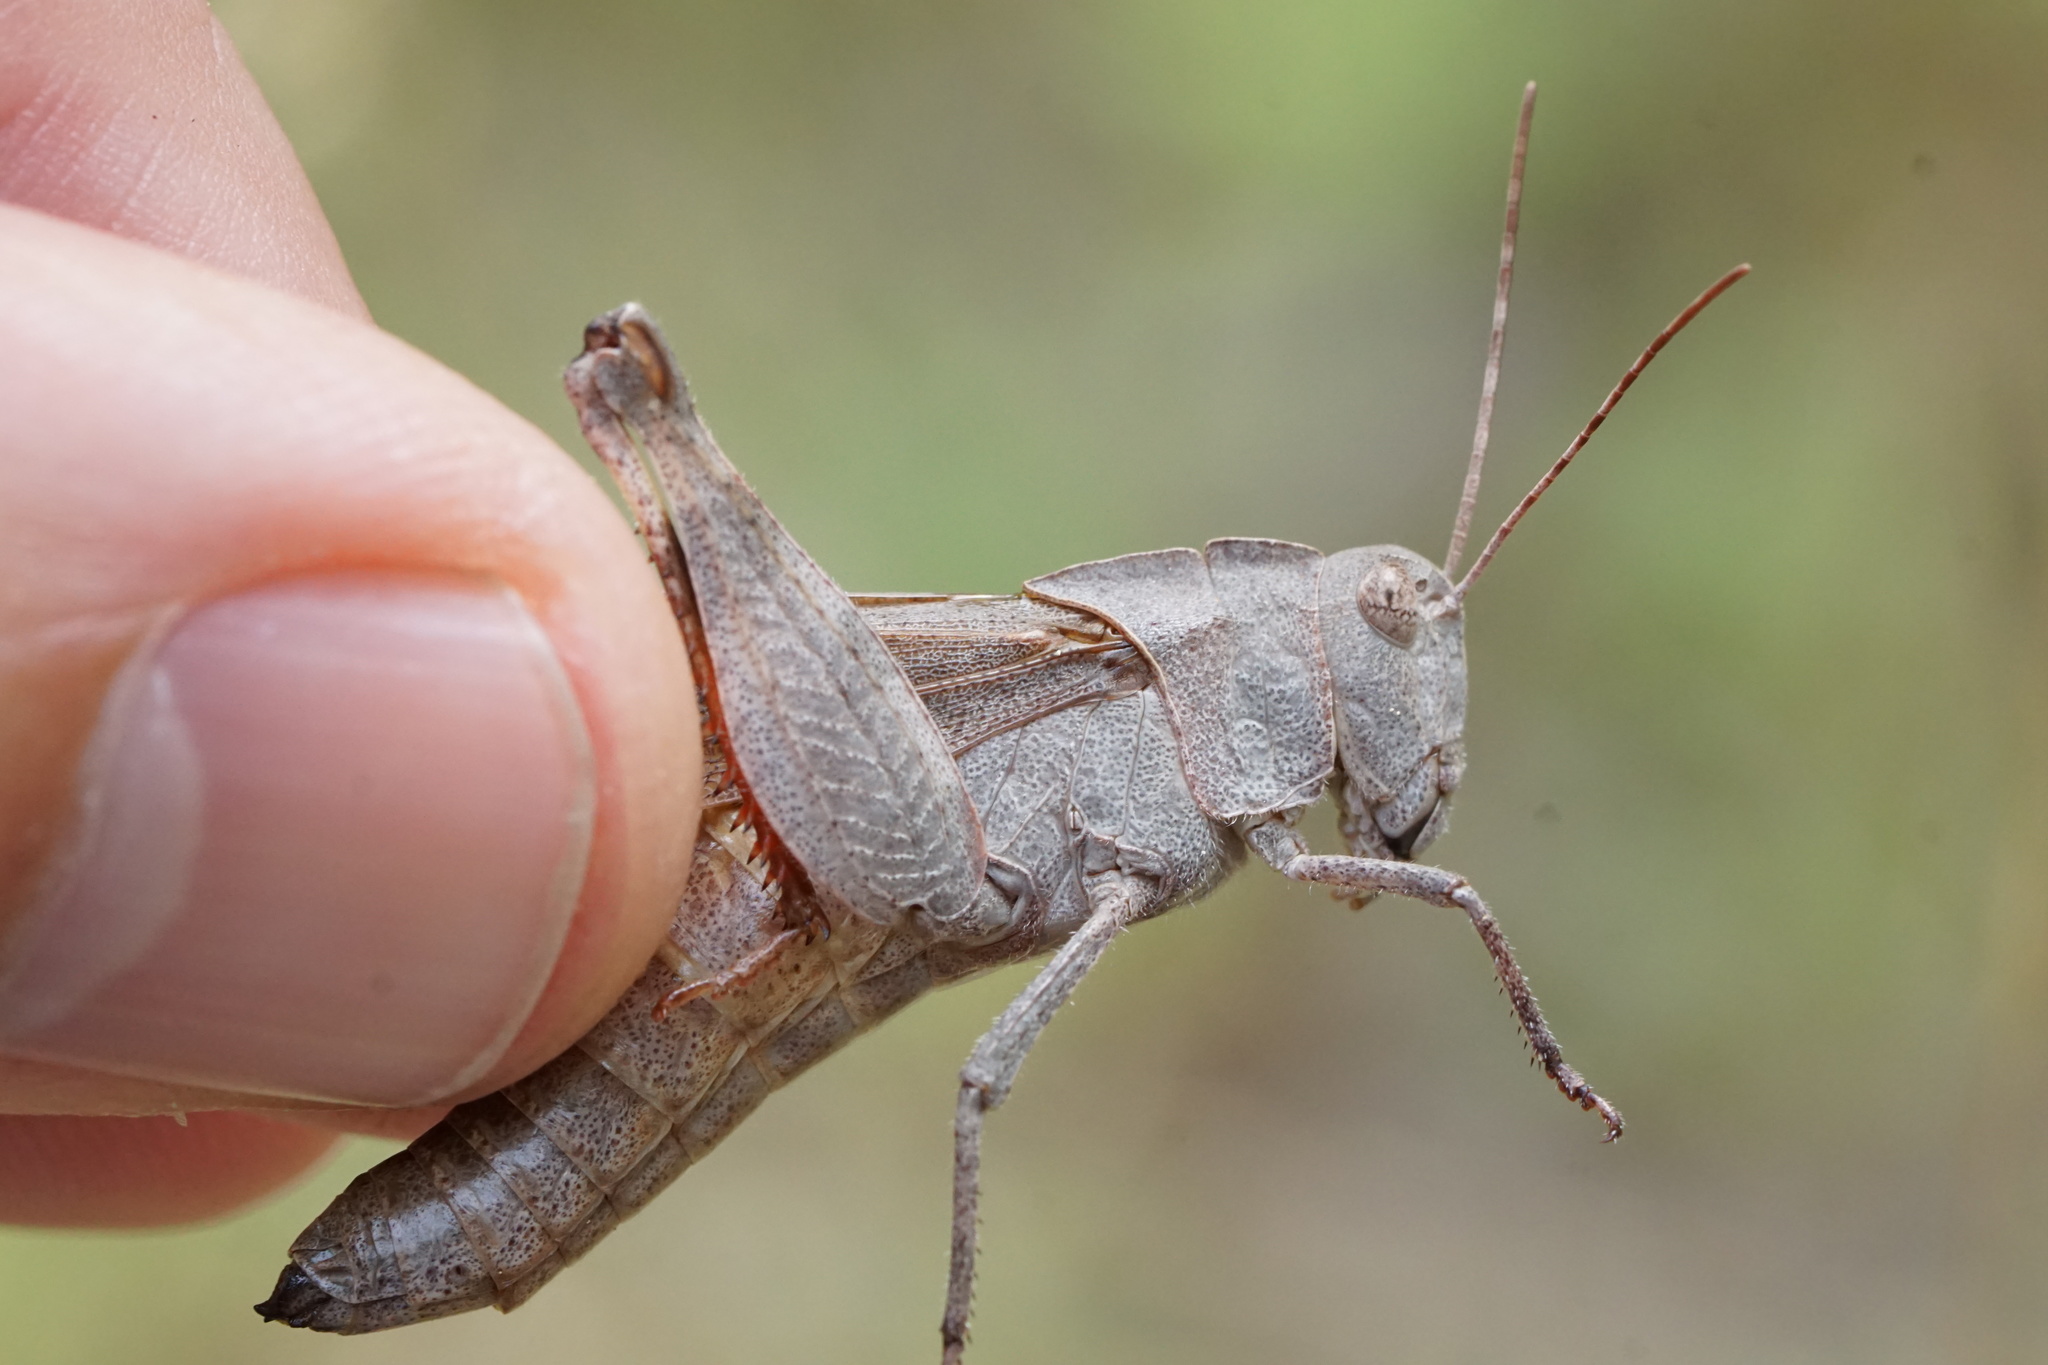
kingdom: Animalia
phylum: Arthropoda
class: Insecta
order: Orthoptera
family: Acrididae
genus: Spharagemon
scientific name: Spharagemon bolli
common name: Boll's grasshopper
